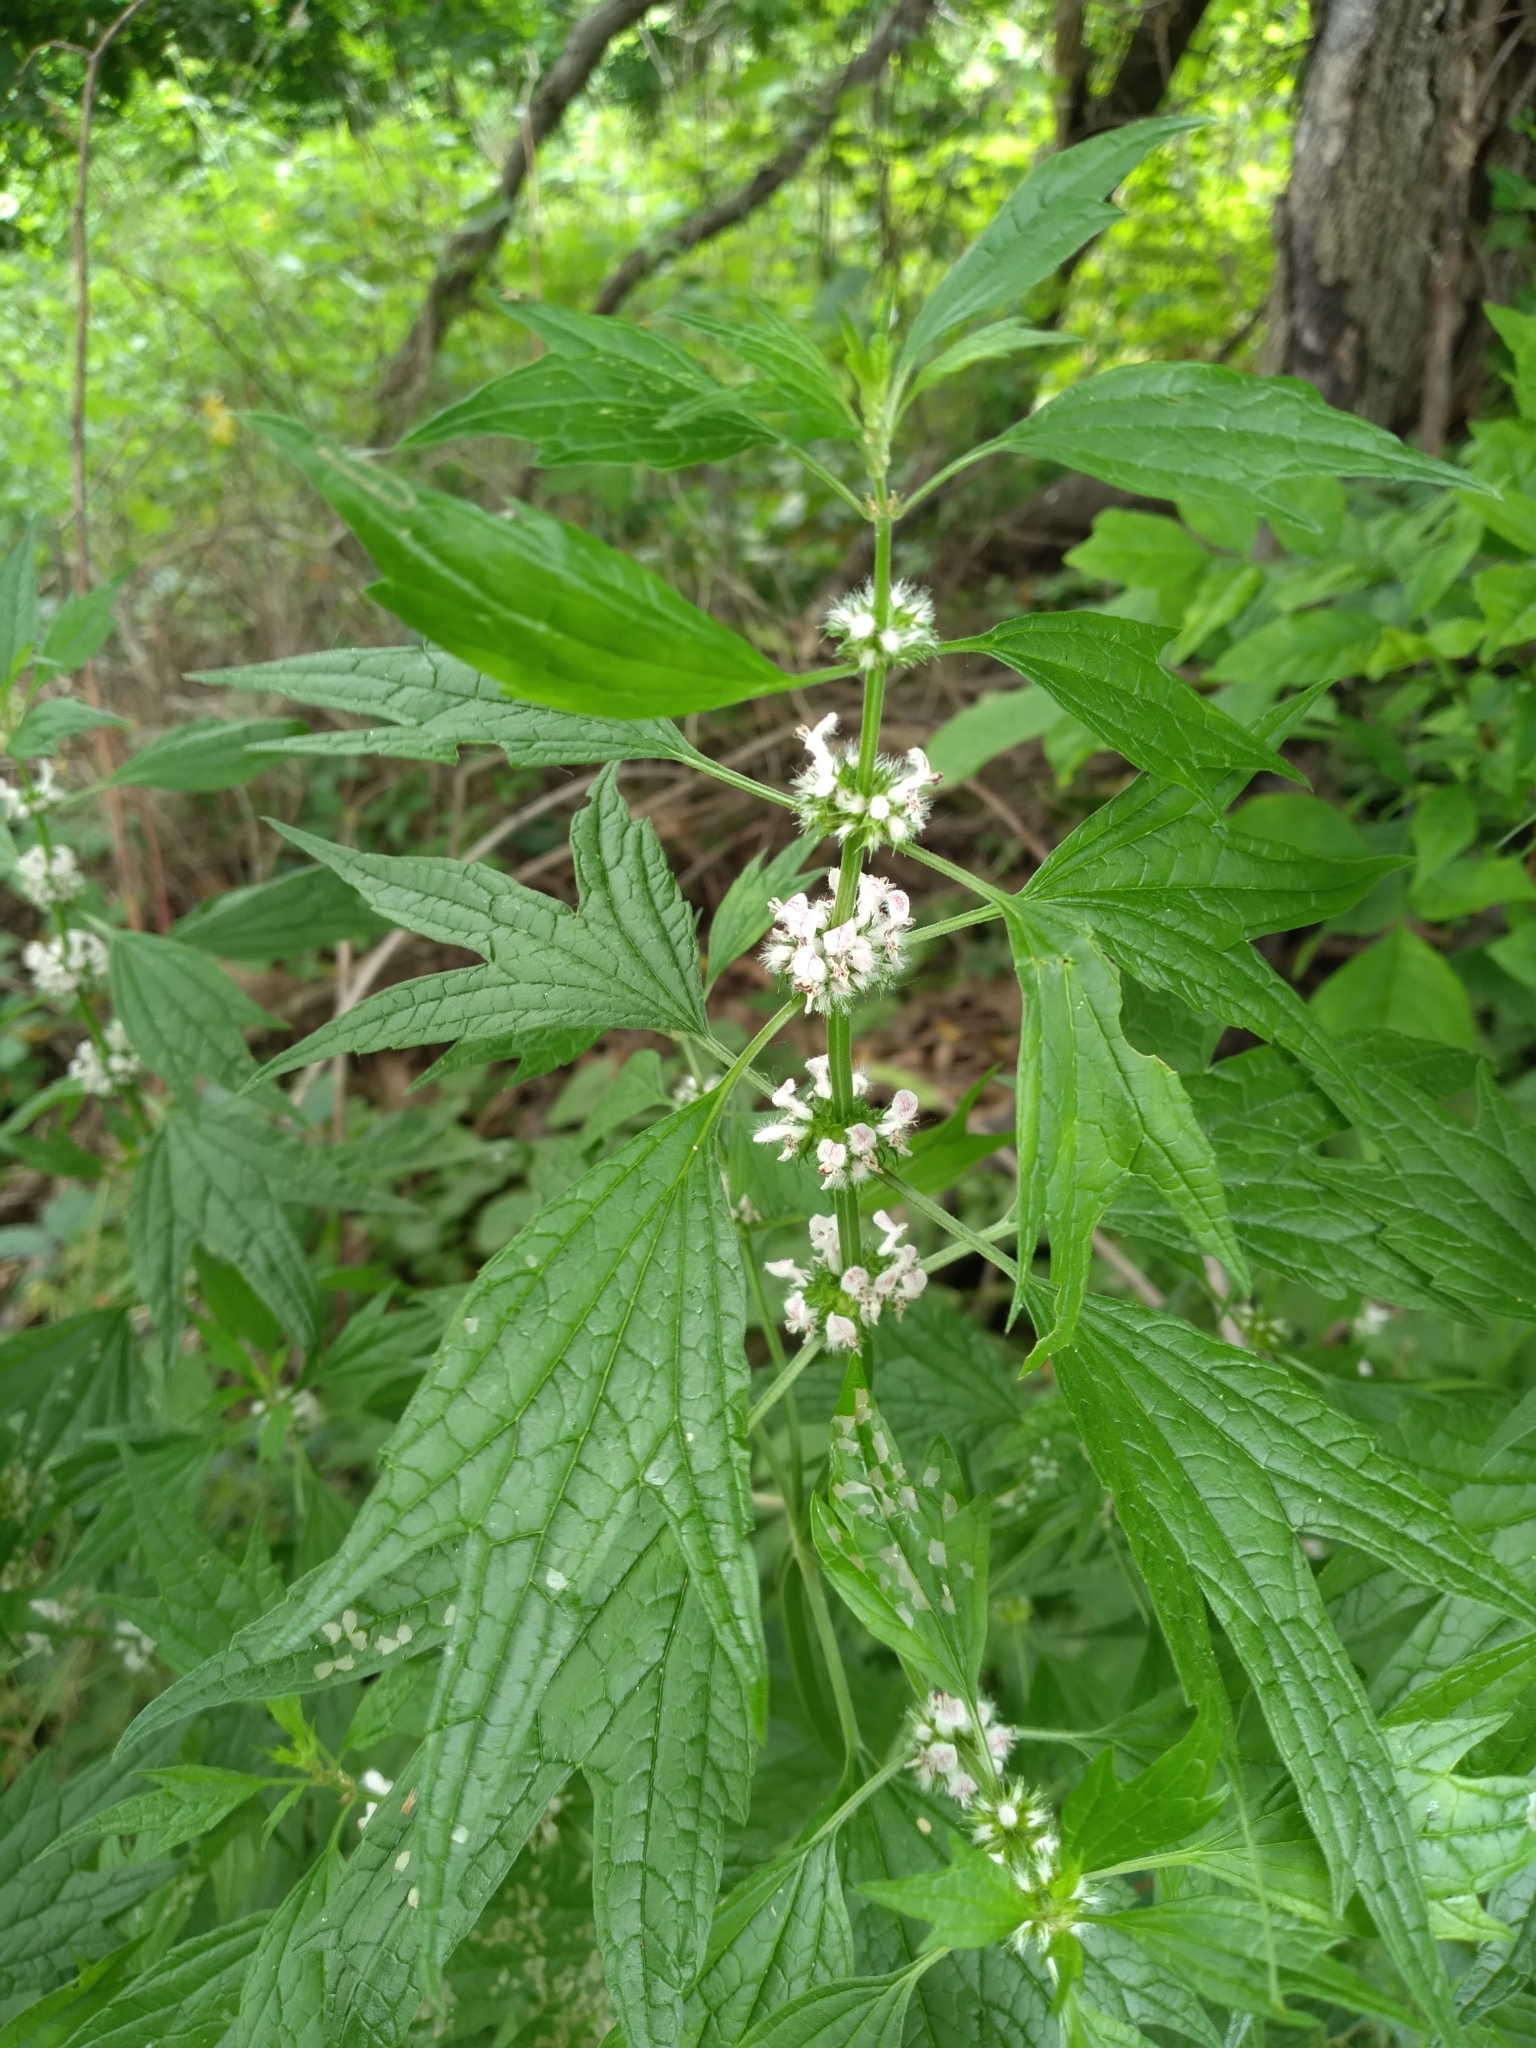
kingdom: Plantae
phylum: Tracheophyta
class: Magnoliopsida
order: Lamiales
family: Lamiaceae
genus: Leonurus
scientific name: Leonurus cardiaca
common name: Motherwort
